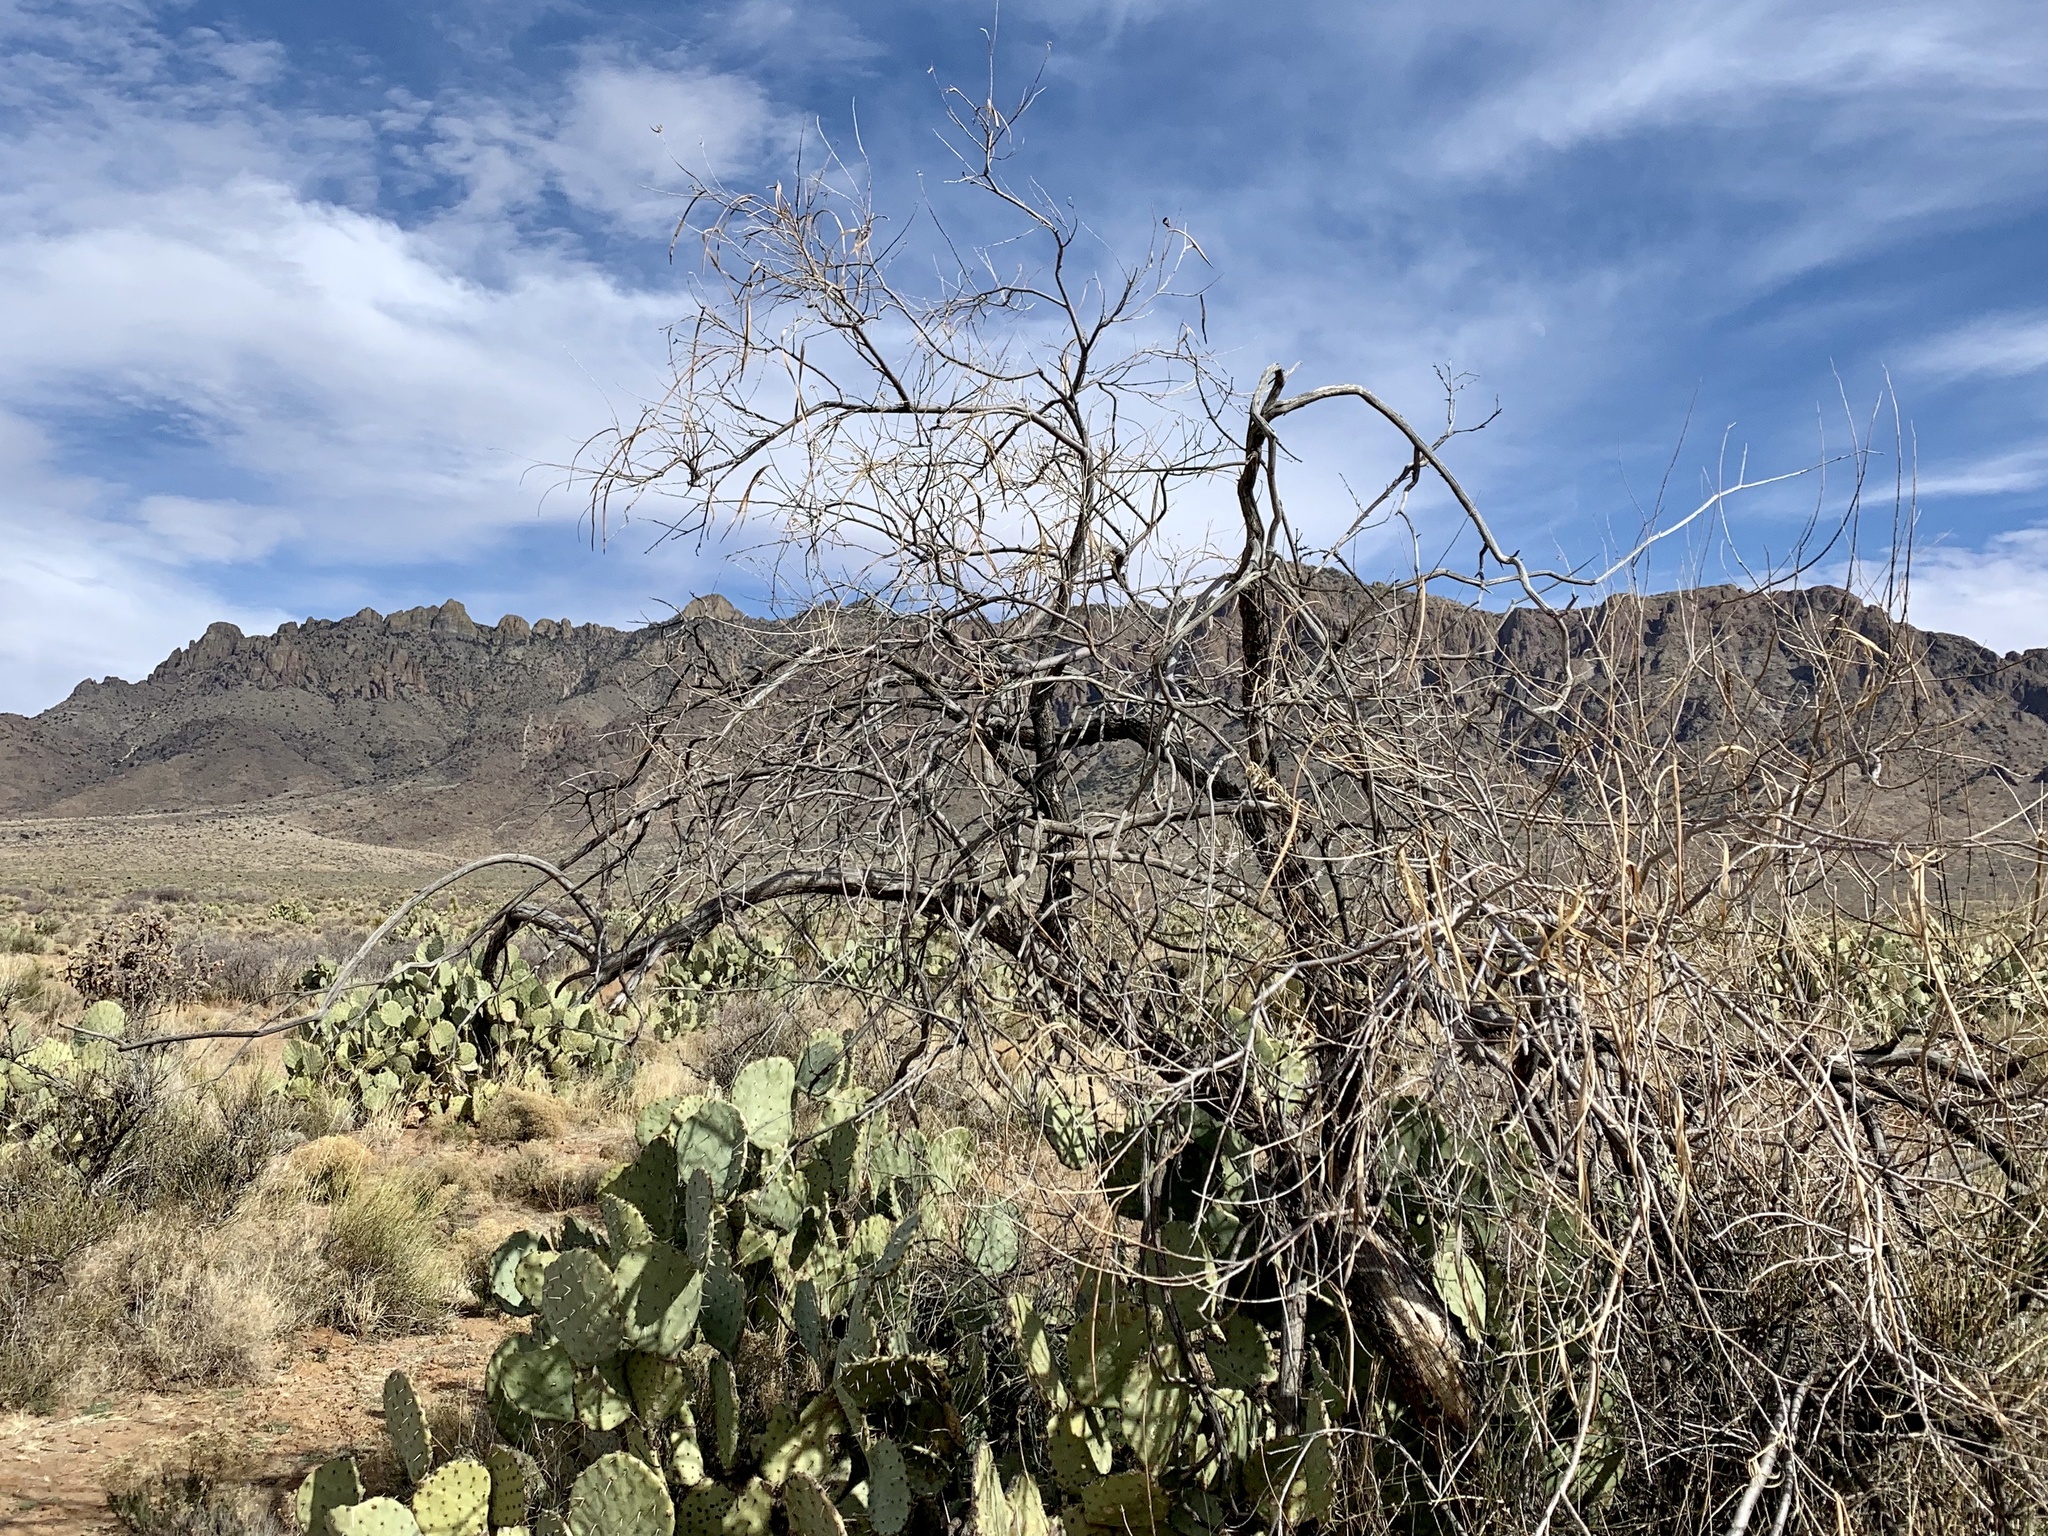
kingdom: Plantae
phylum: Tracheophyta
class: Magnoliopsida
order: Lamiales
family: Bignoniaceae
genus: Chilopsis
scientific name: Chilopsis linearis
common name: Desert-willow
